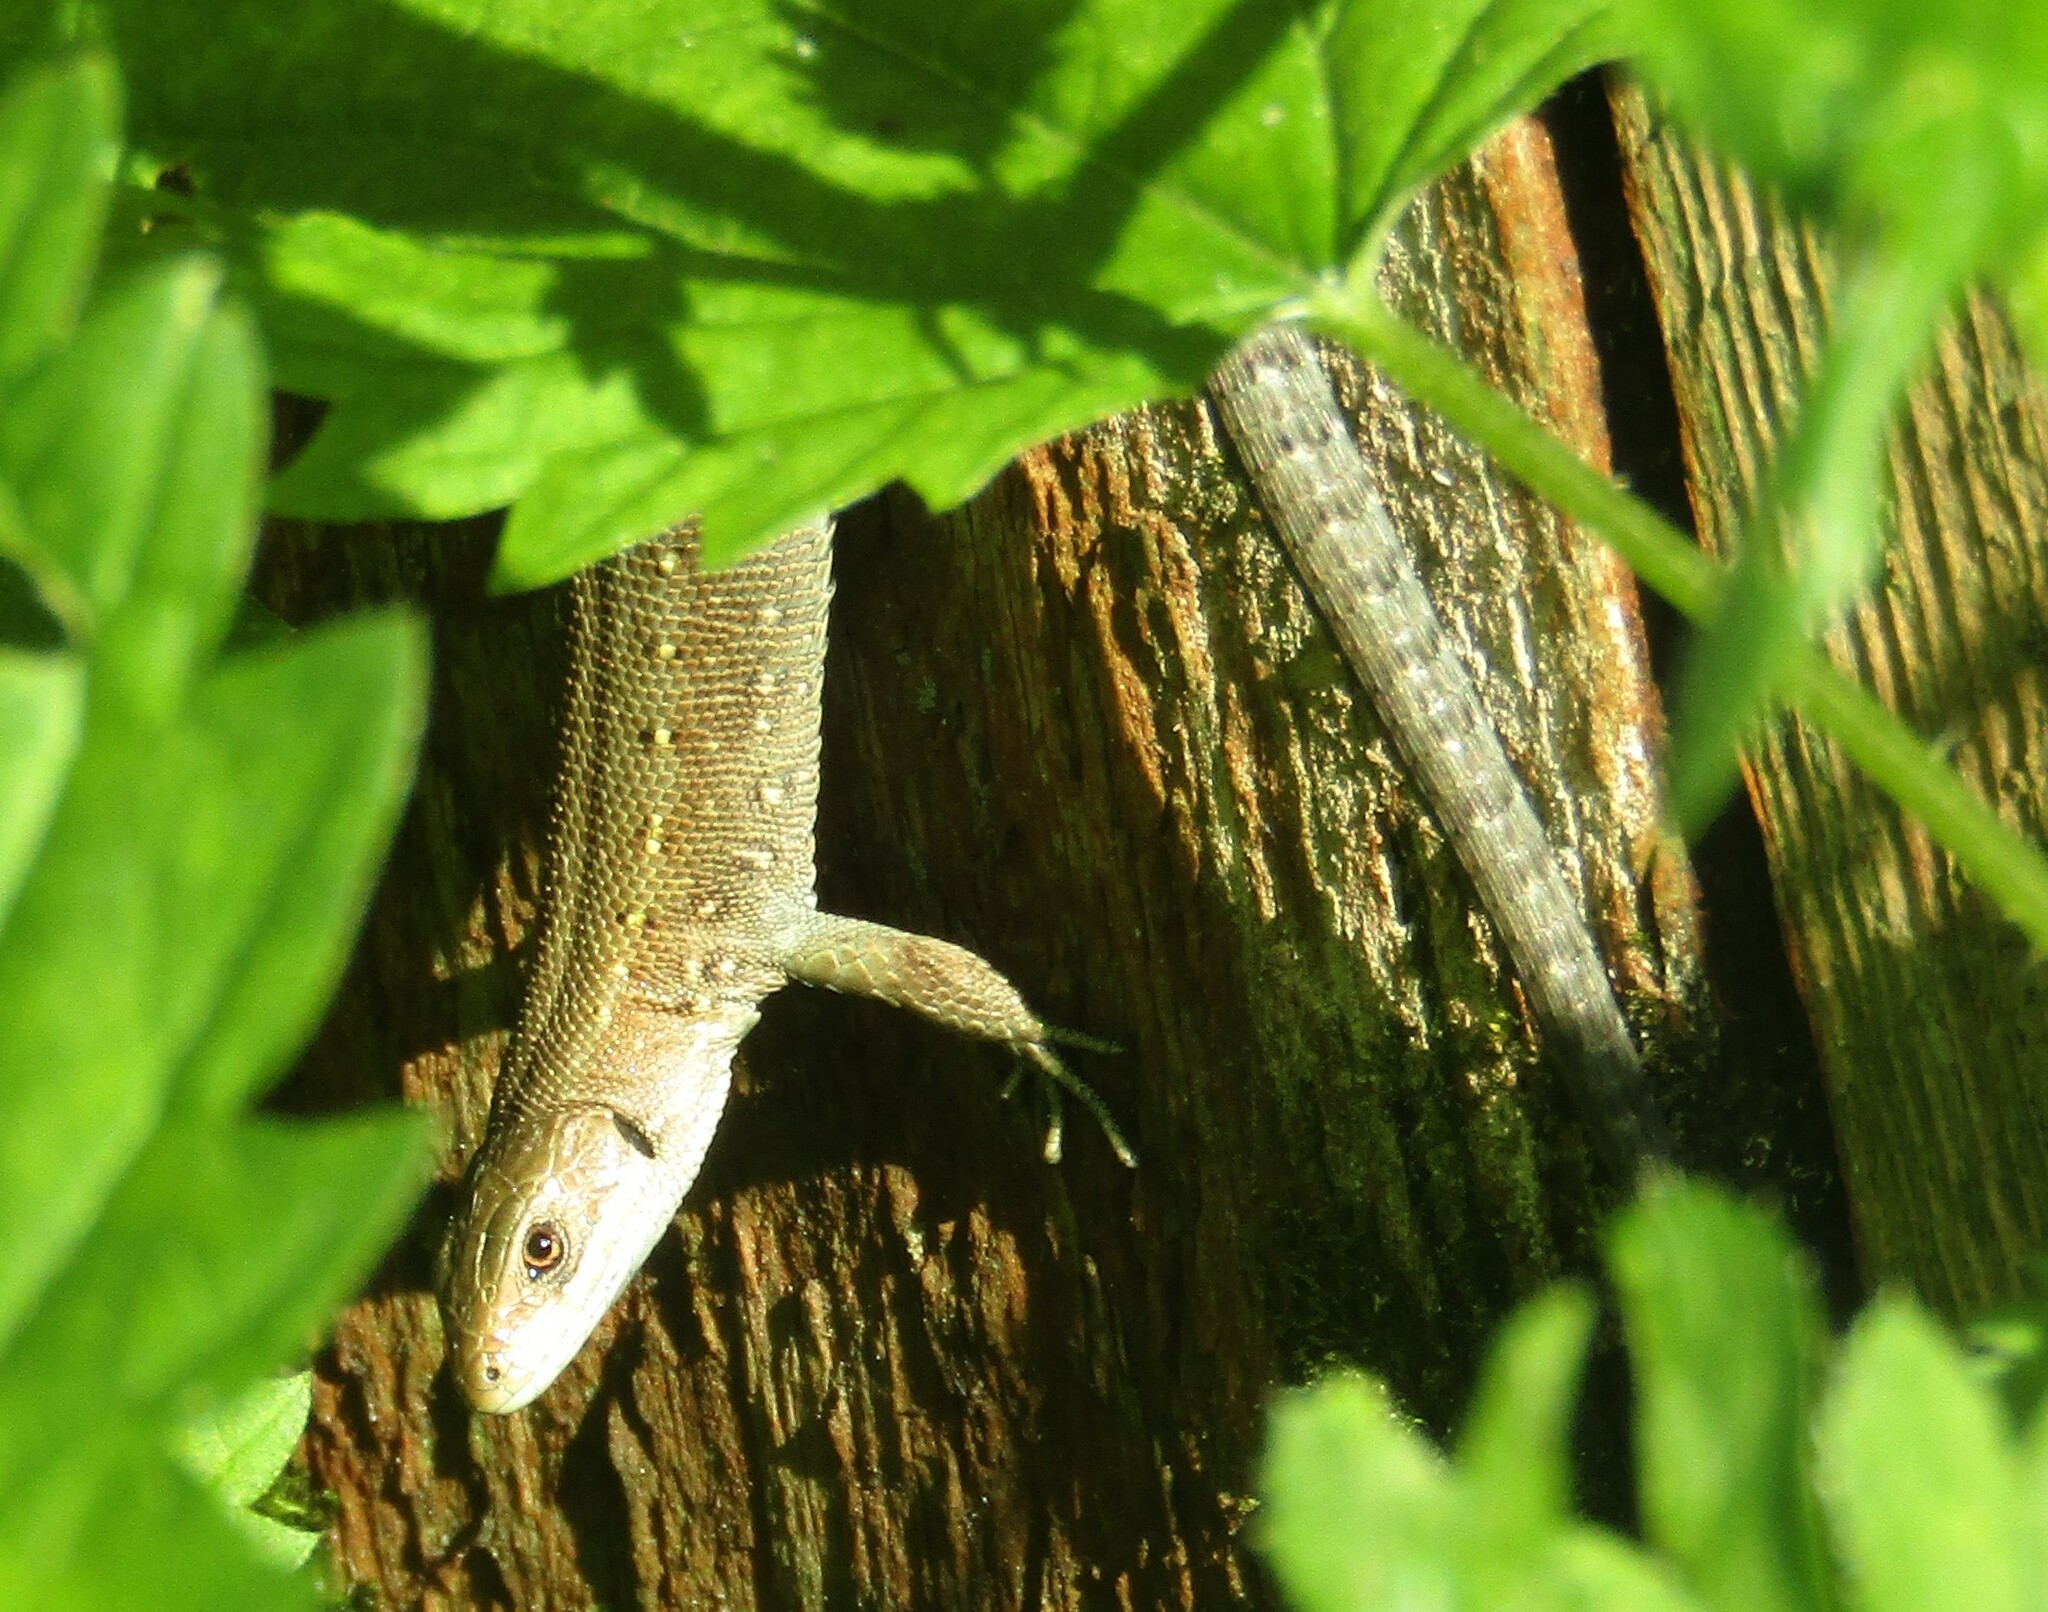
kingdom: Animalia
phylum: Chordata
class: Squamata
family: Lacertidae
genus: Zootoca
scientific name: Zootoca vivipara
